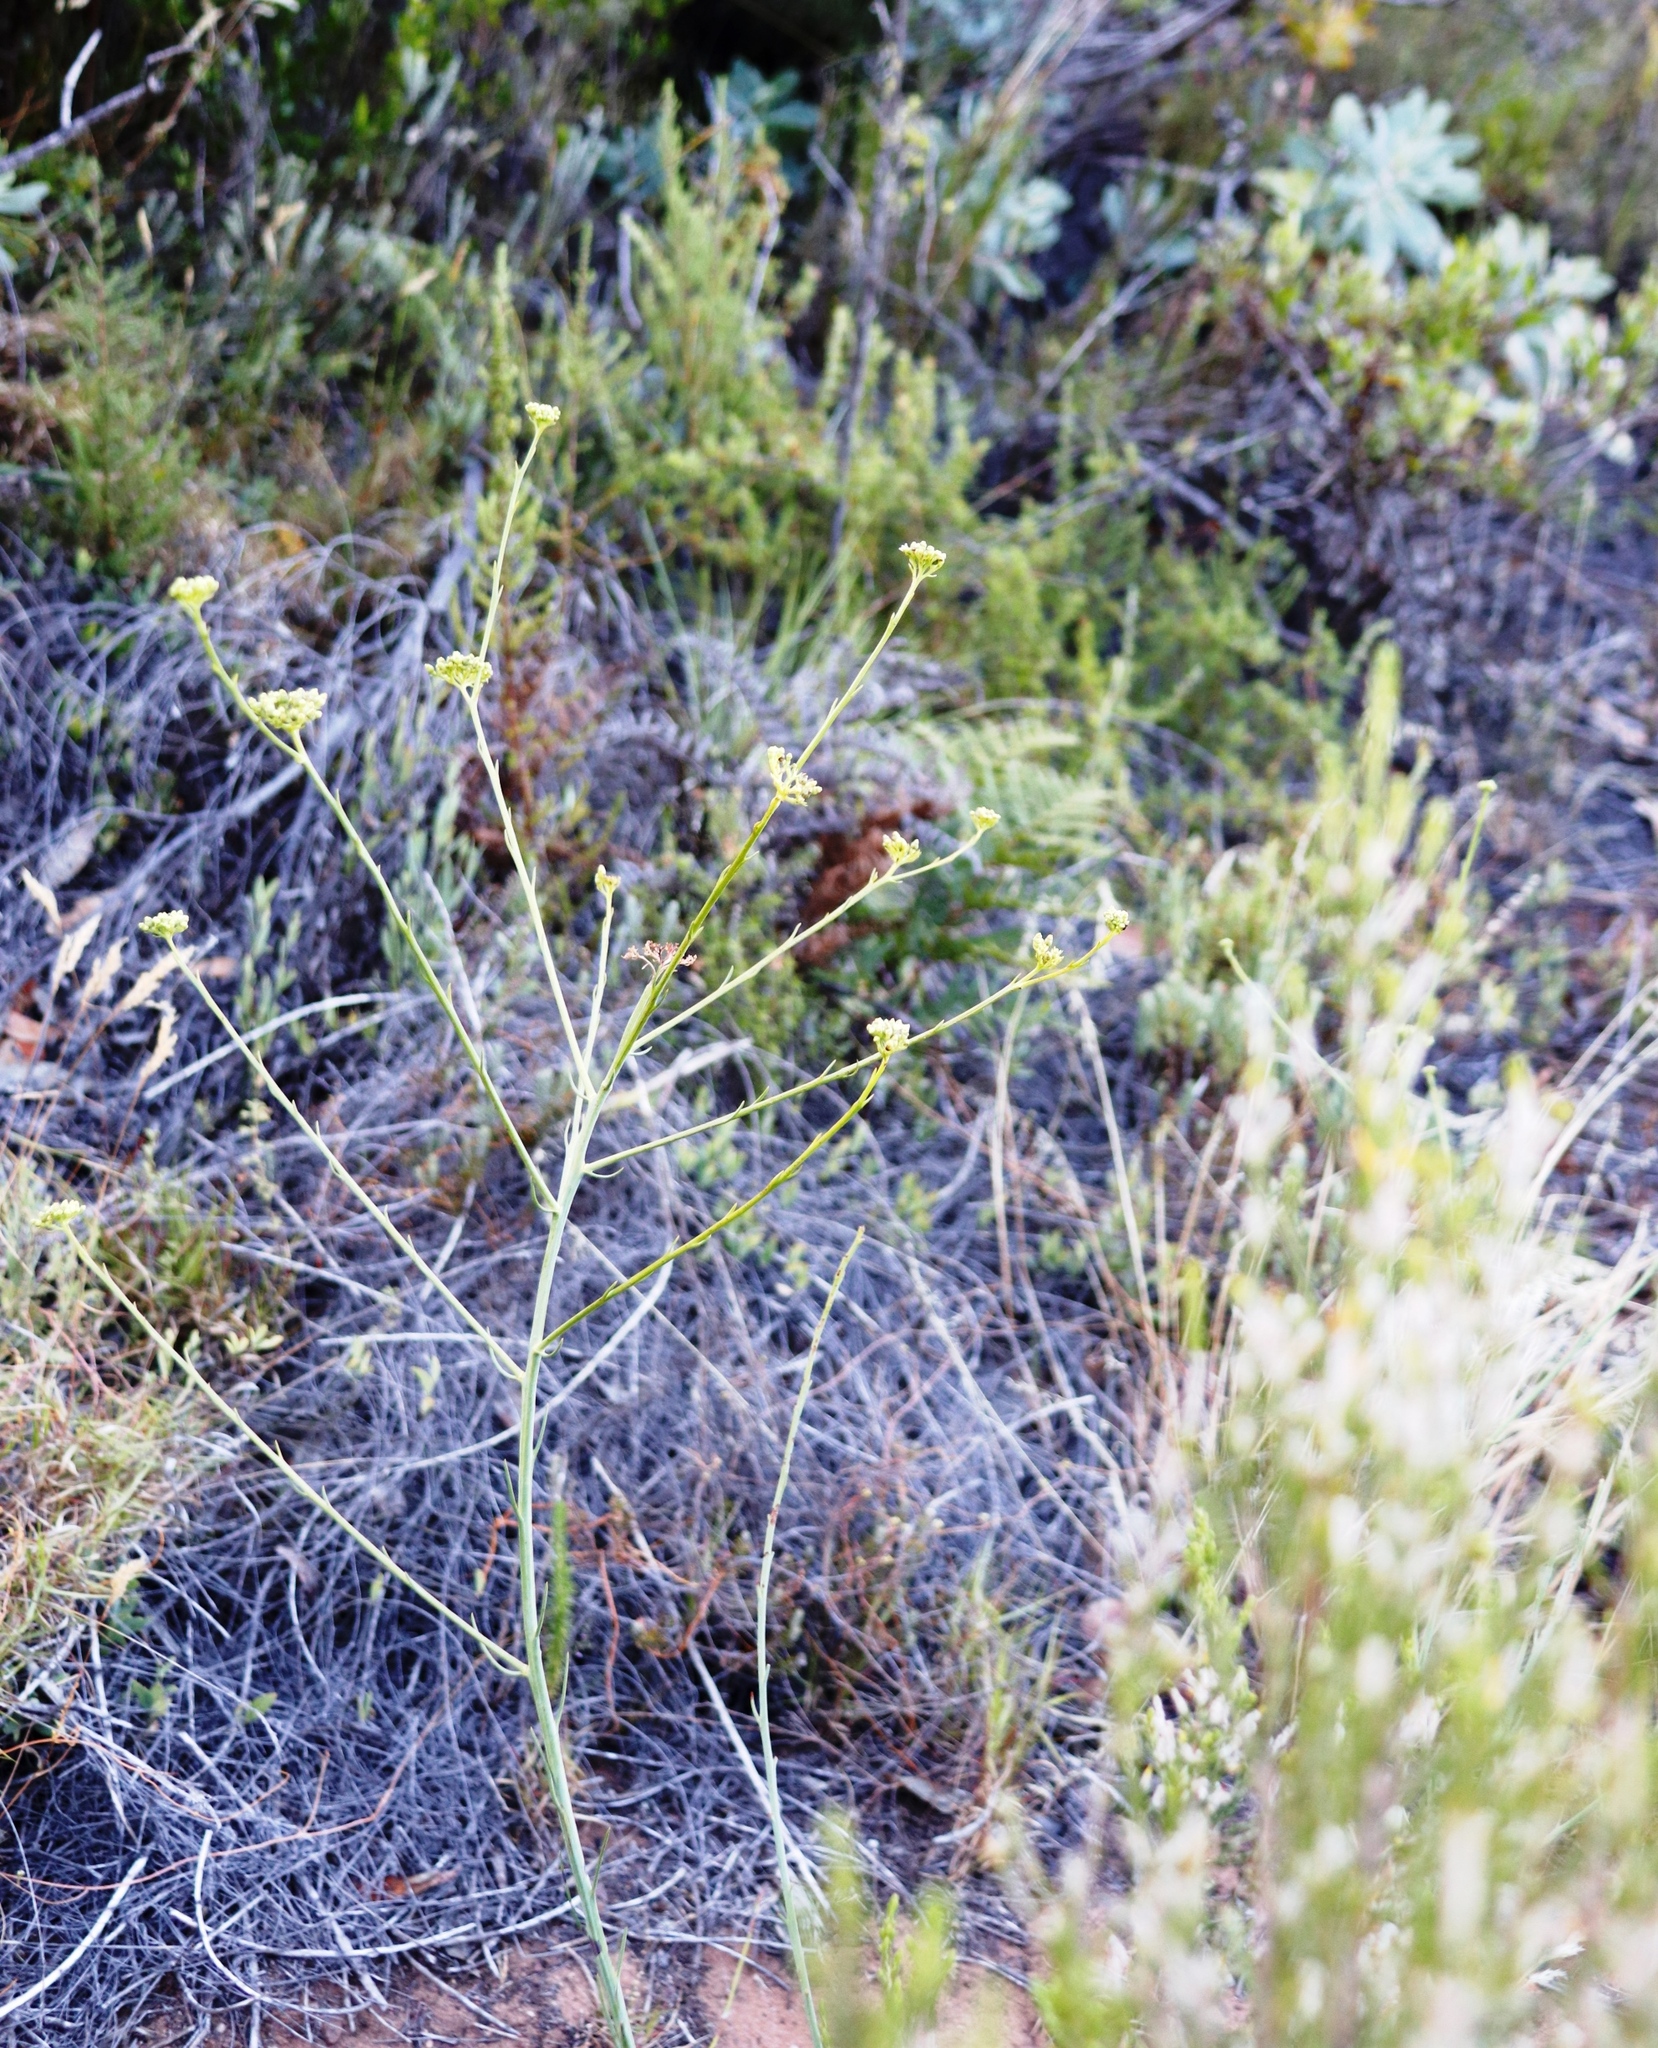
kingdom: Plantae
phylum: Tracheophyta
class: Magnoliopsida
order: Santalales
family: Thesiaceae
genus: Thesium
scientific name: Thesium strictum
